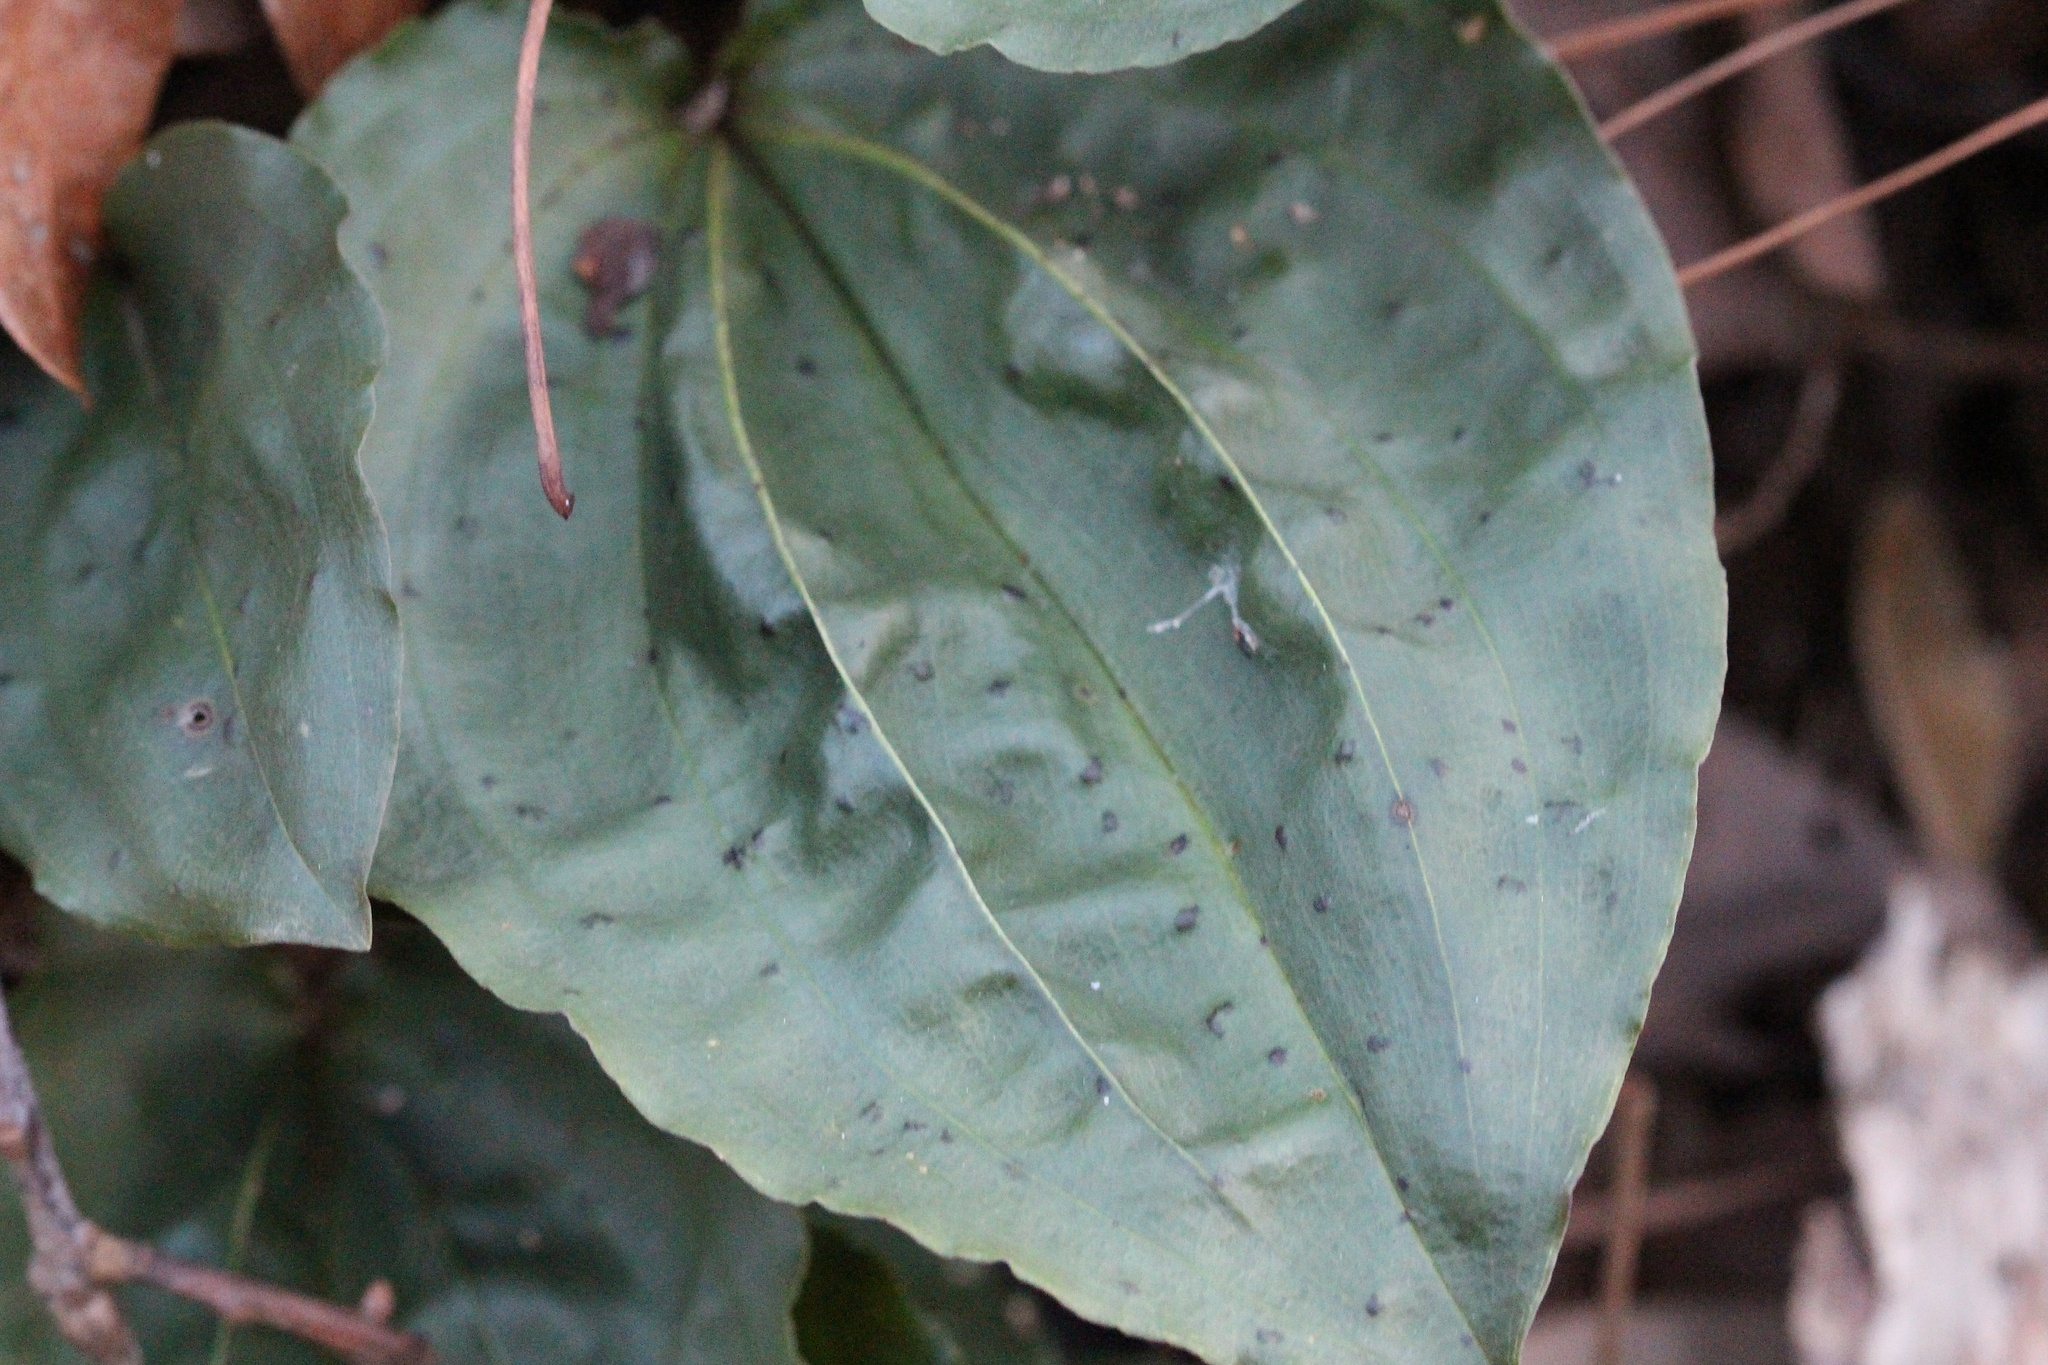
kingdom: Plantae
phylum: Tracheophyta
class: Liliopsida
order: Asparagales
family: Orchidaceae
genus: Tipularia
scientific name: Tipularia discolor
